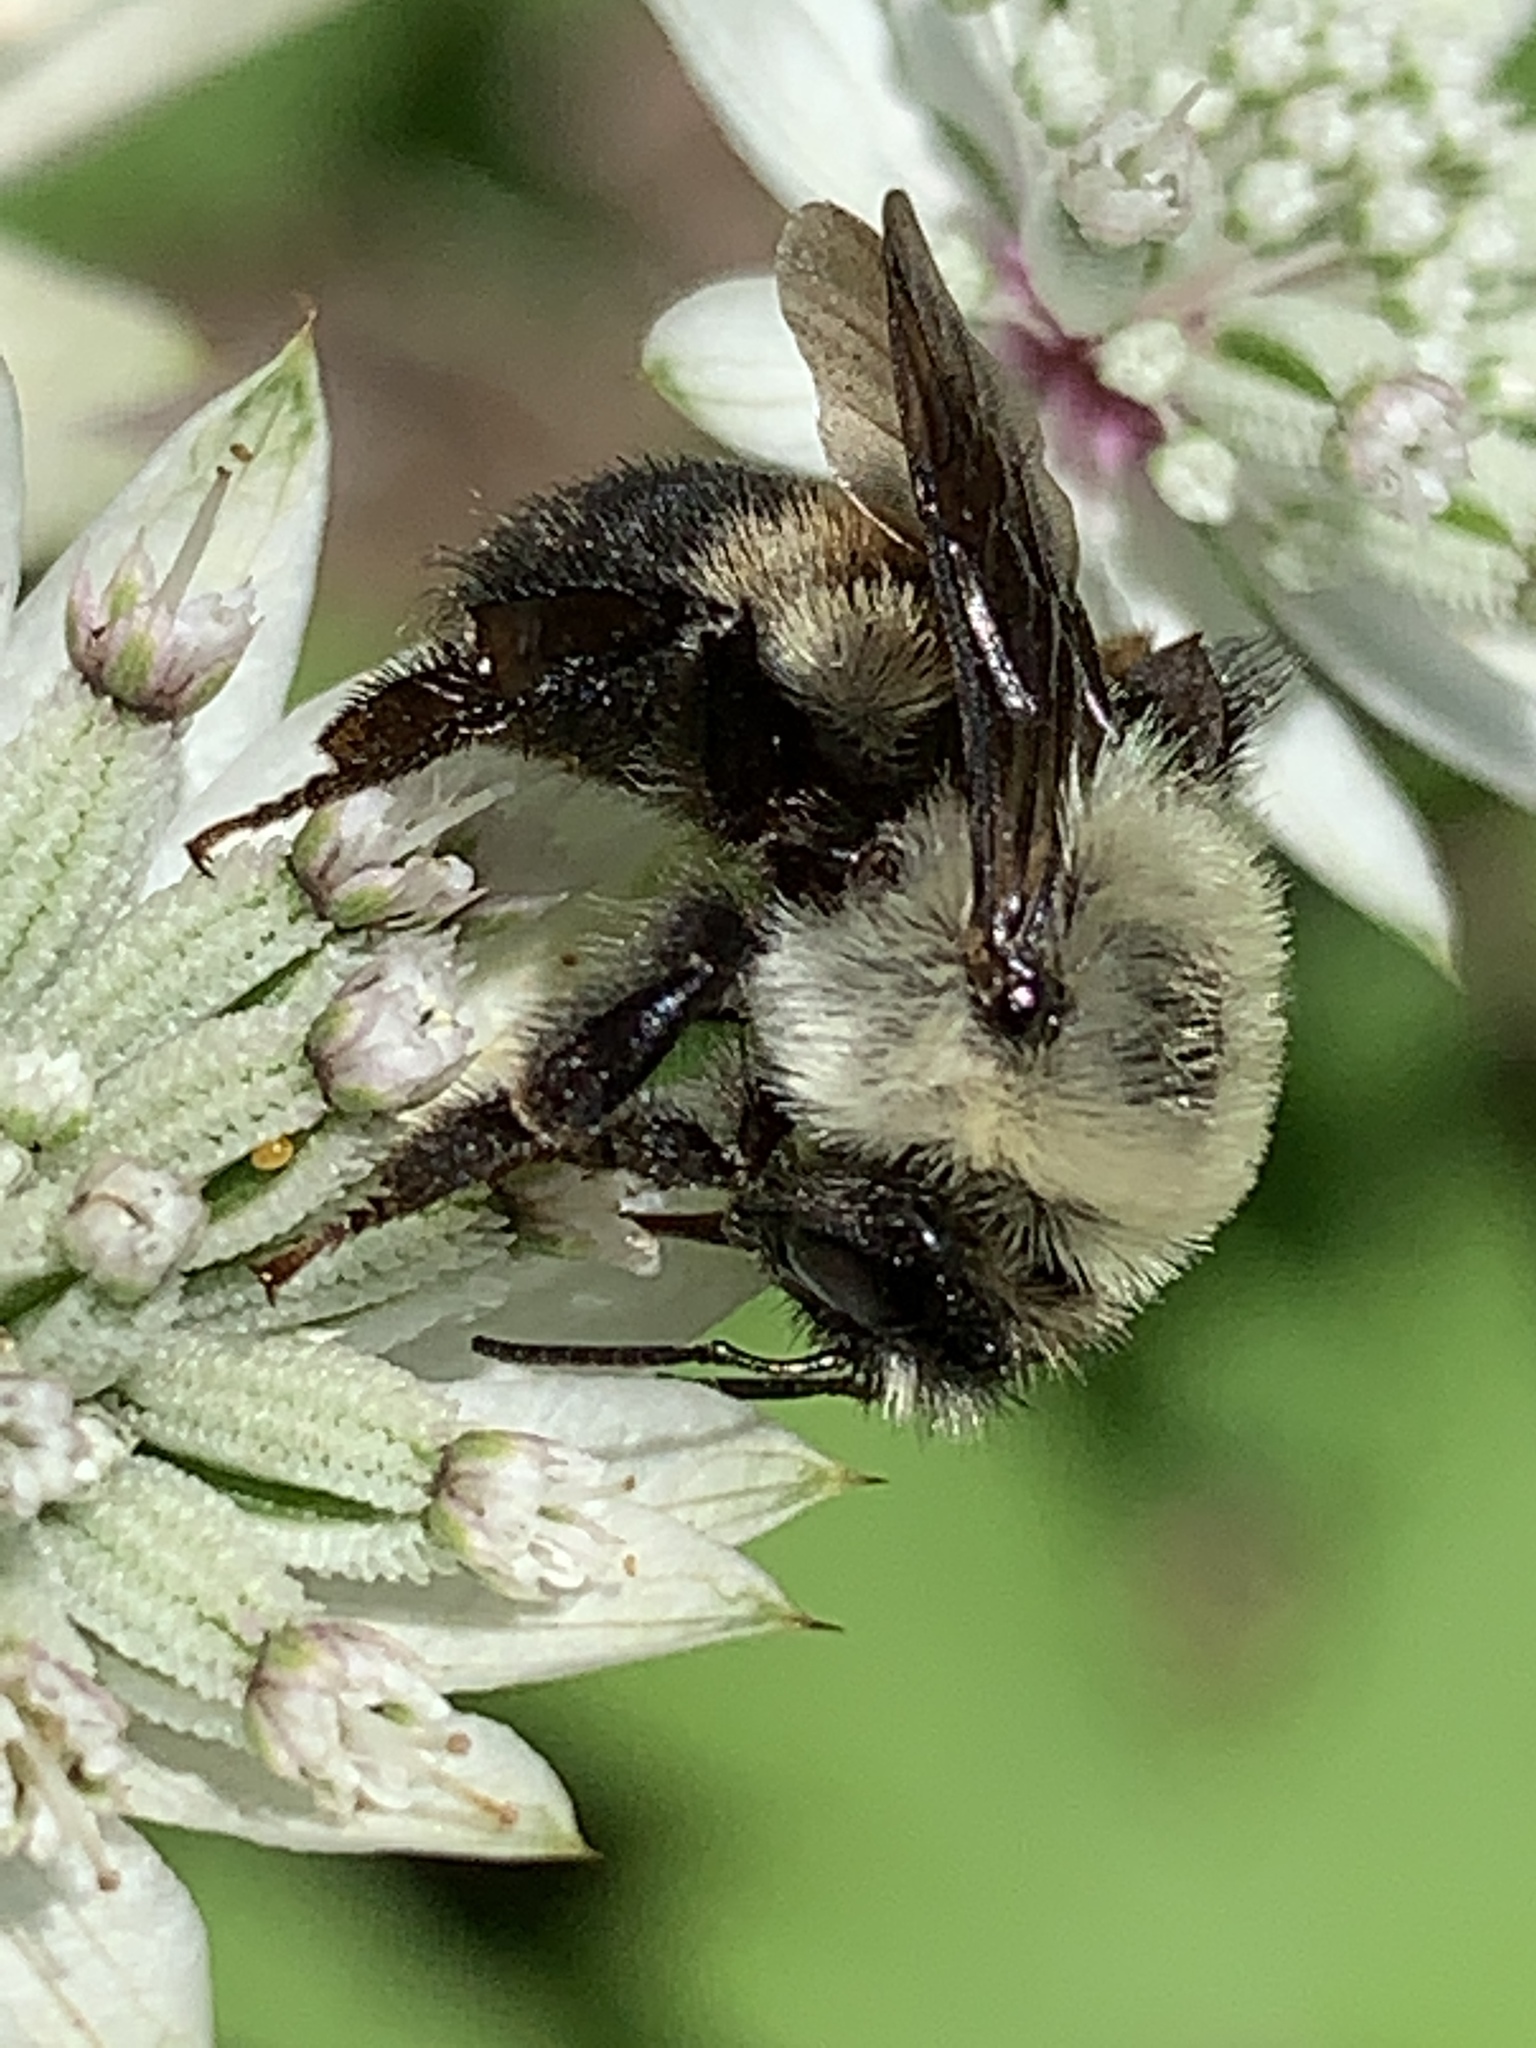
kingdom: Animalia
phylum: Arthropoda
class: Insecta
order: Hymenoptera
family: Apidae
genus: Bombus
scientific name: Bombus griseocollis
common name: Brown-belted bumble bee
